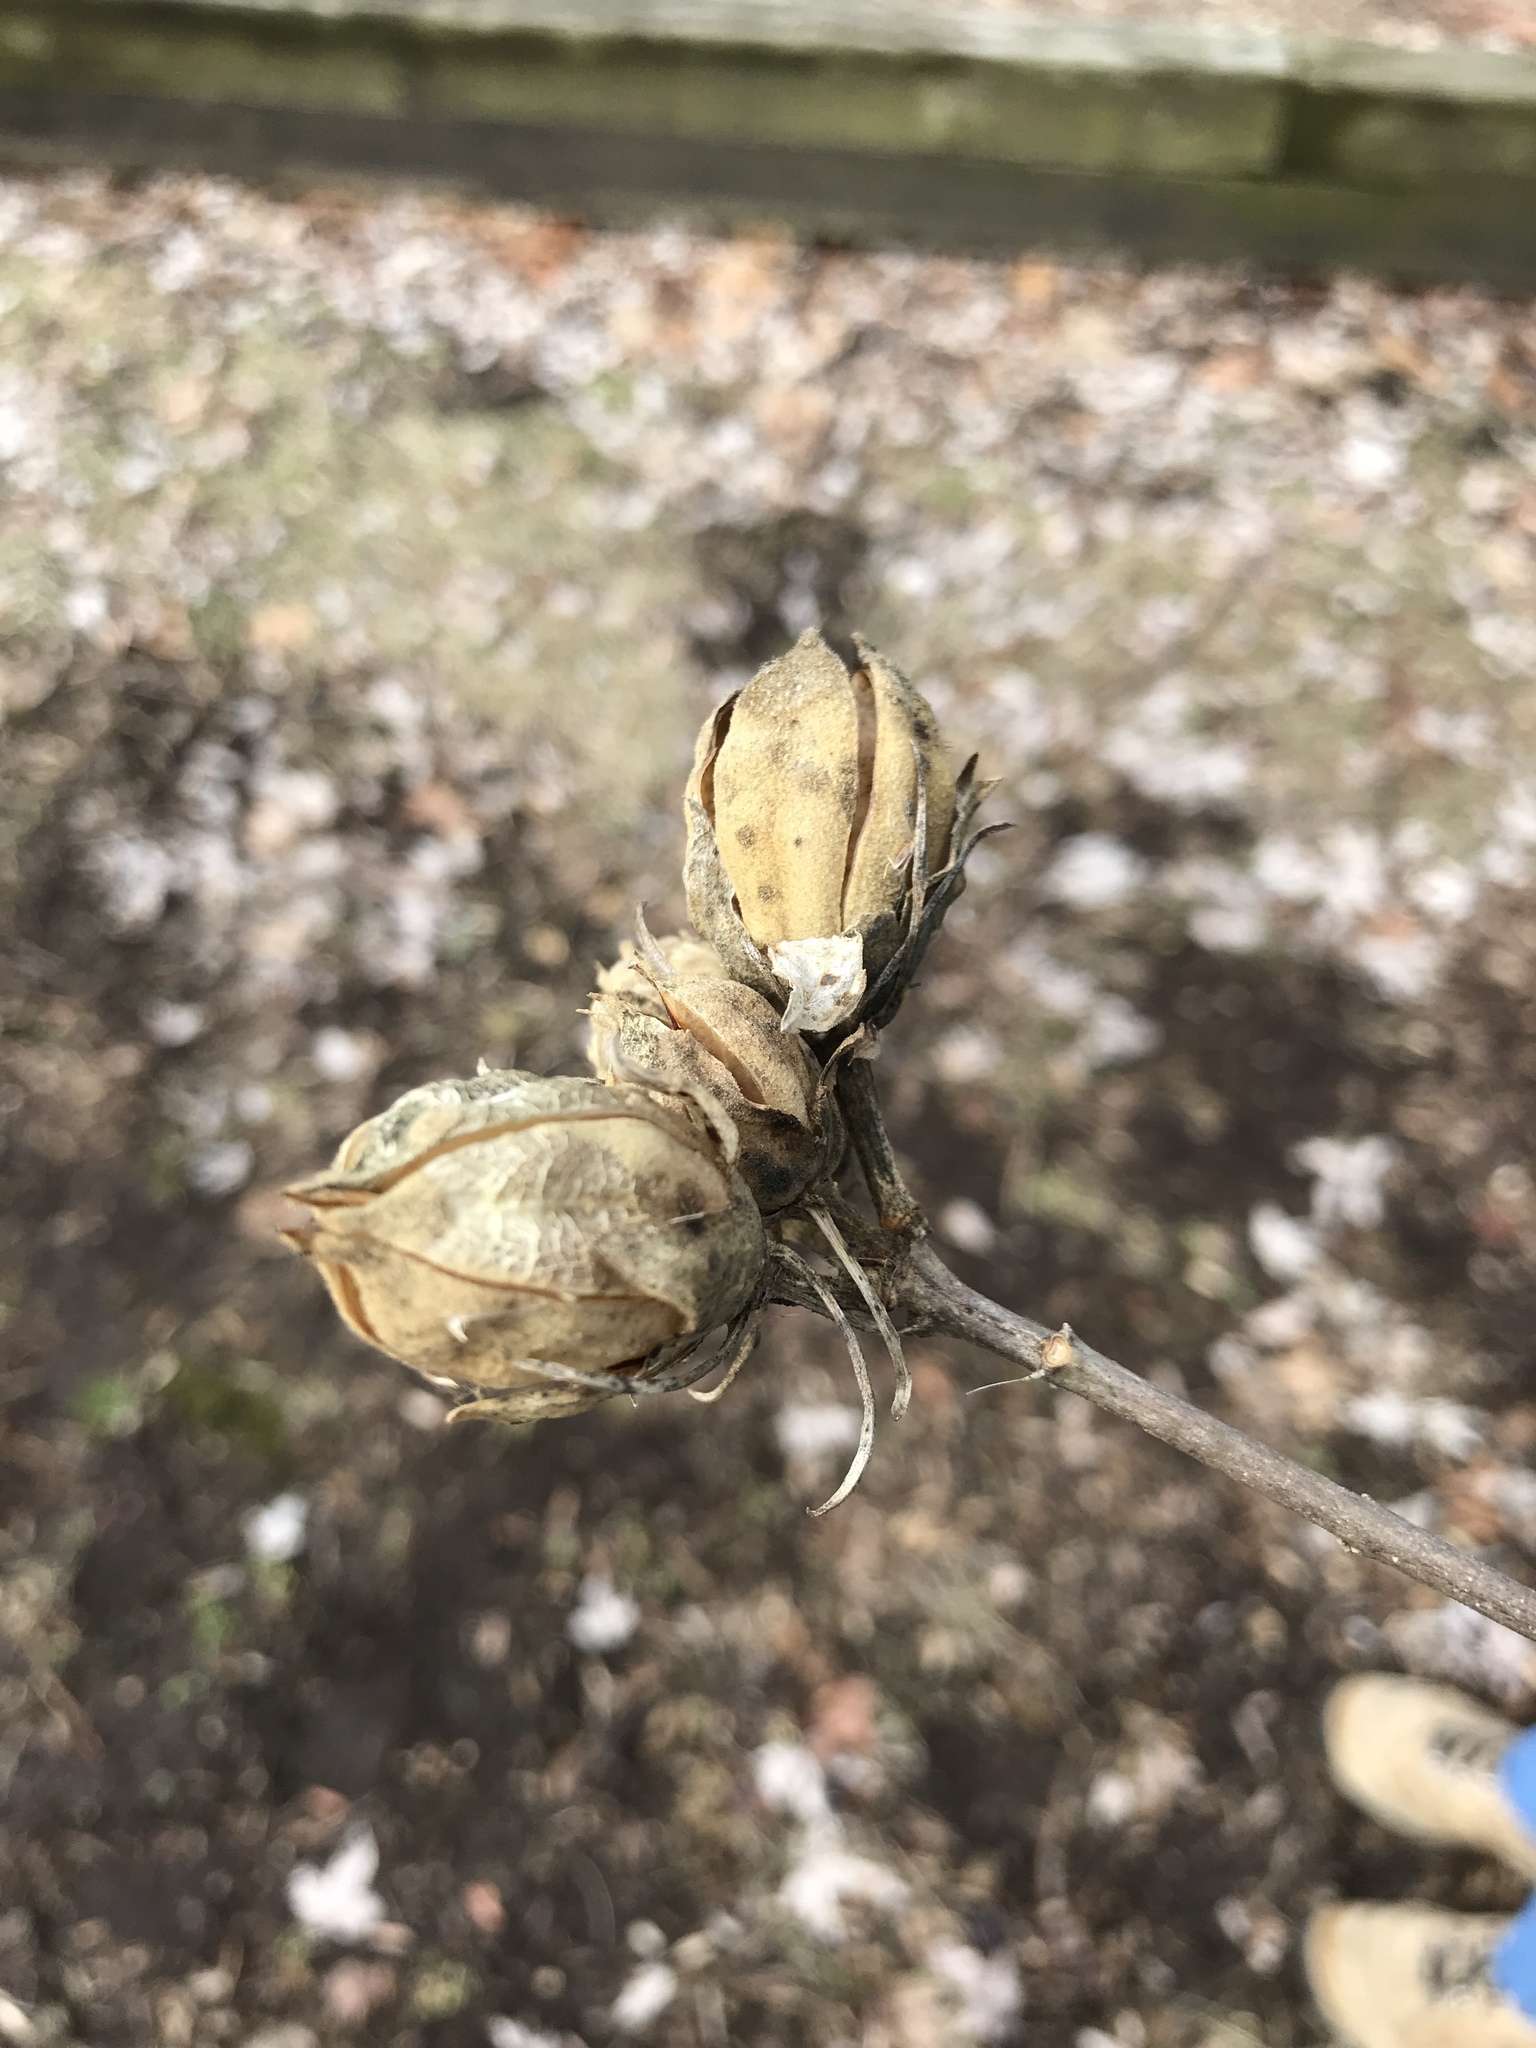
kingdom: Plantae
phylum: Tracheophyta
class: Magnoliopsida
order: Malvales
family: Malvaceae
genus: Hibiscus
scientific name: Hibiscus syriacus
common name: Syrian ketmia
